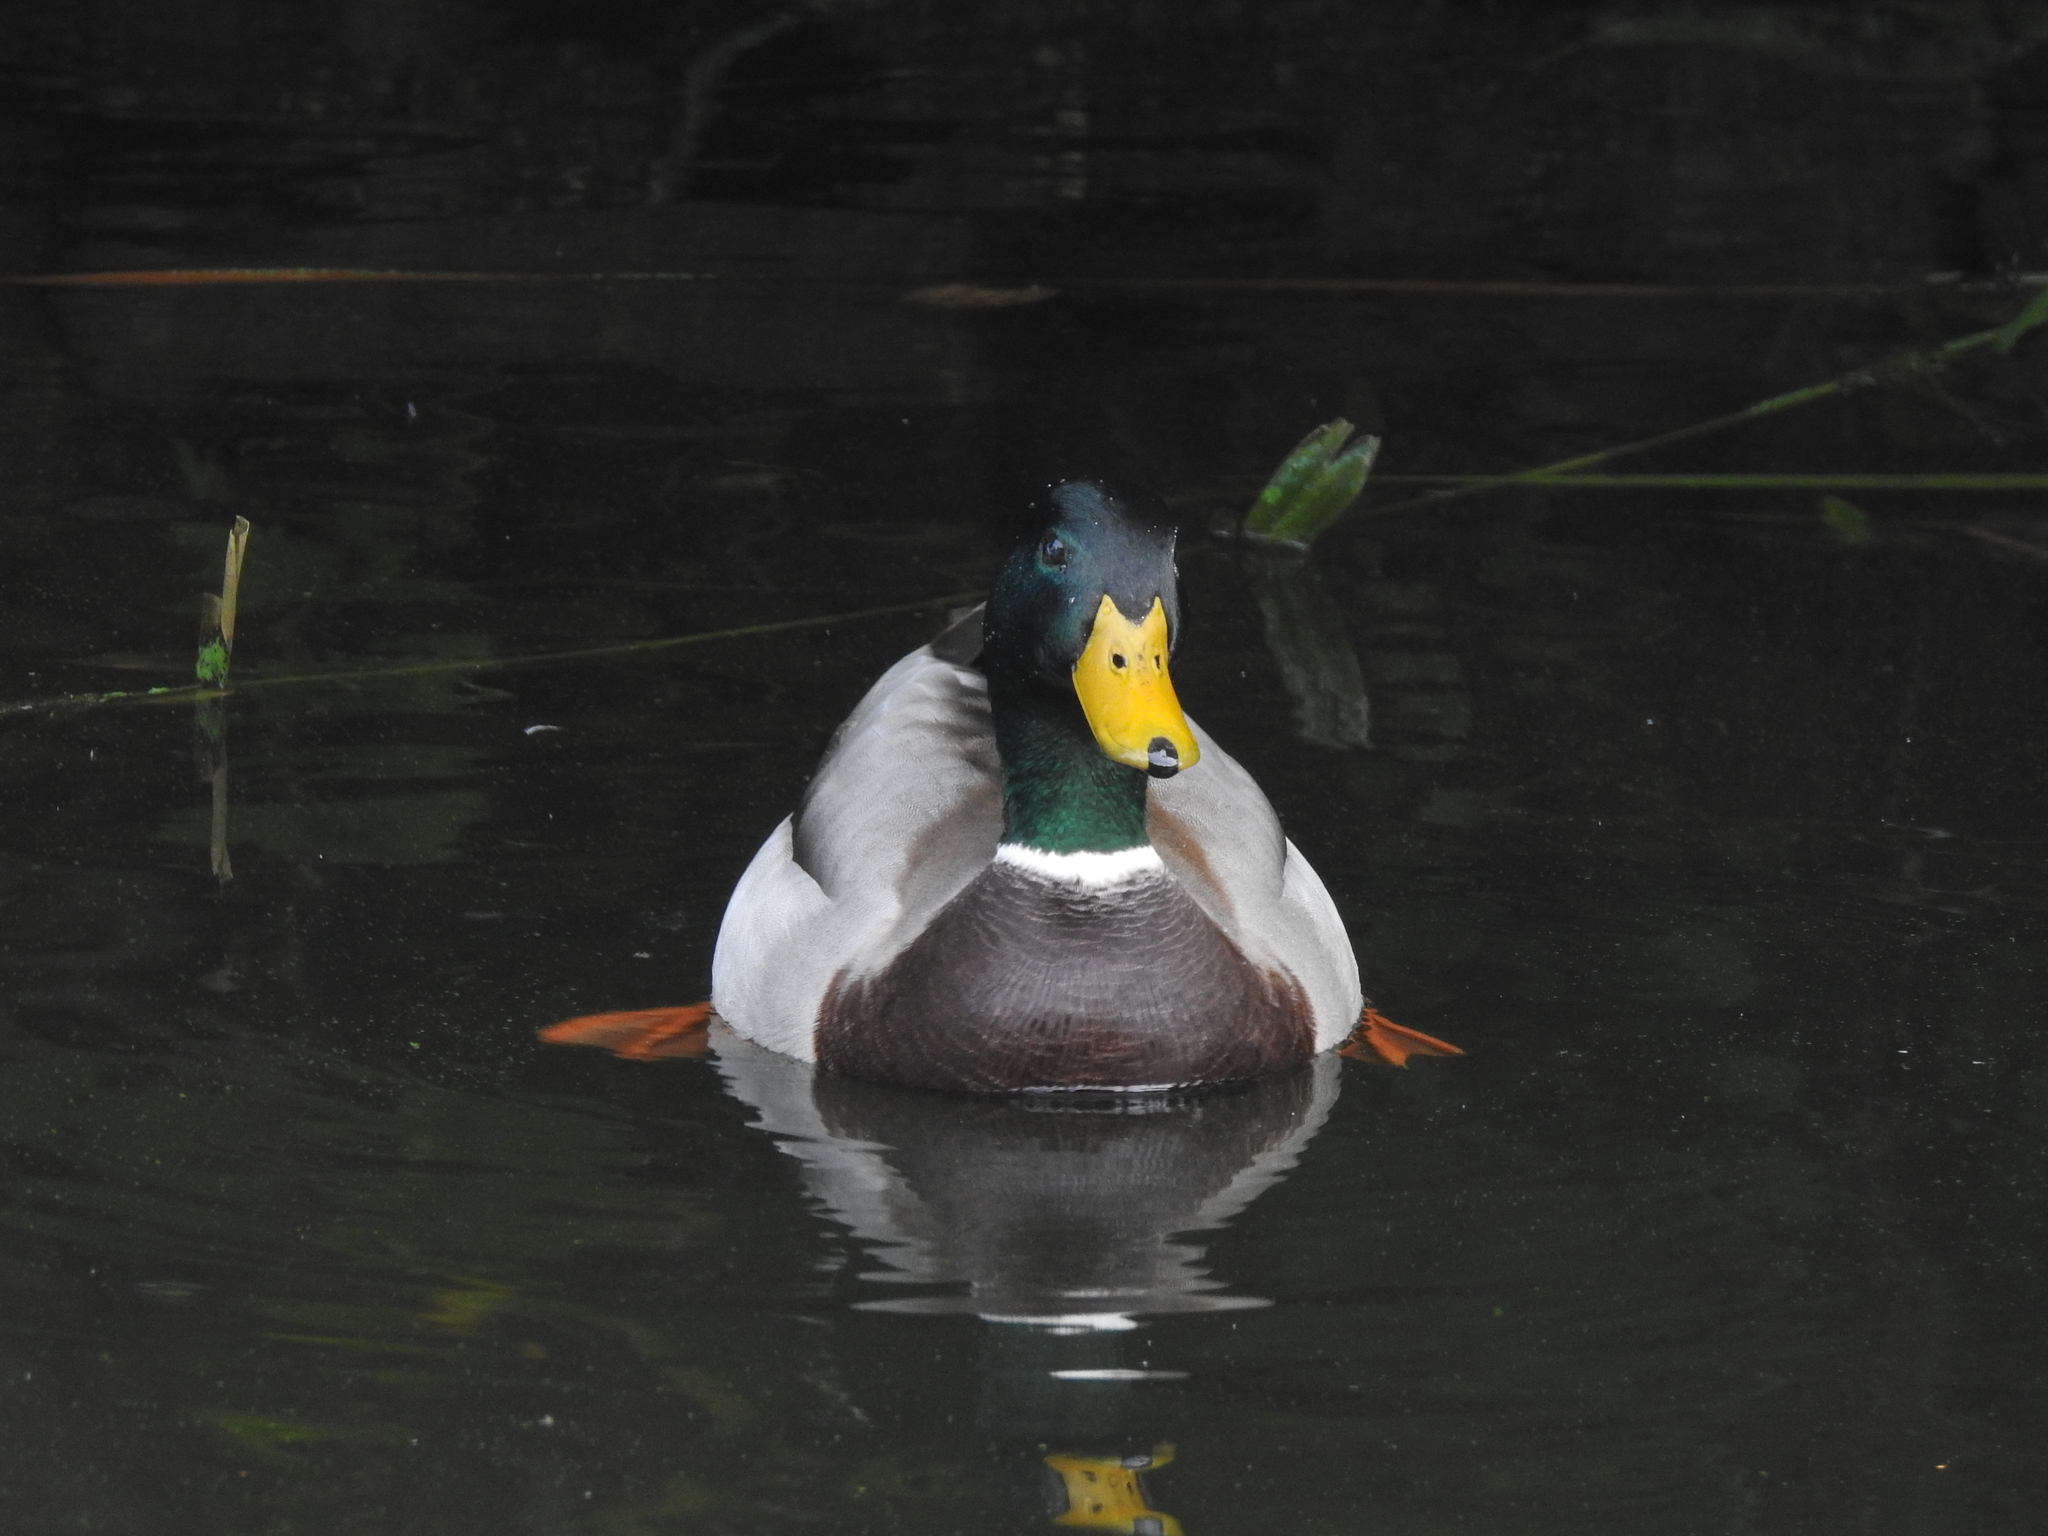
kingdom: Animalia
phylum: Chordata
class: Aves
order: Anseriformes
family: Anatidae
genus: Anas
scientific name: Anas platyrhynchos
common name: Mallard
